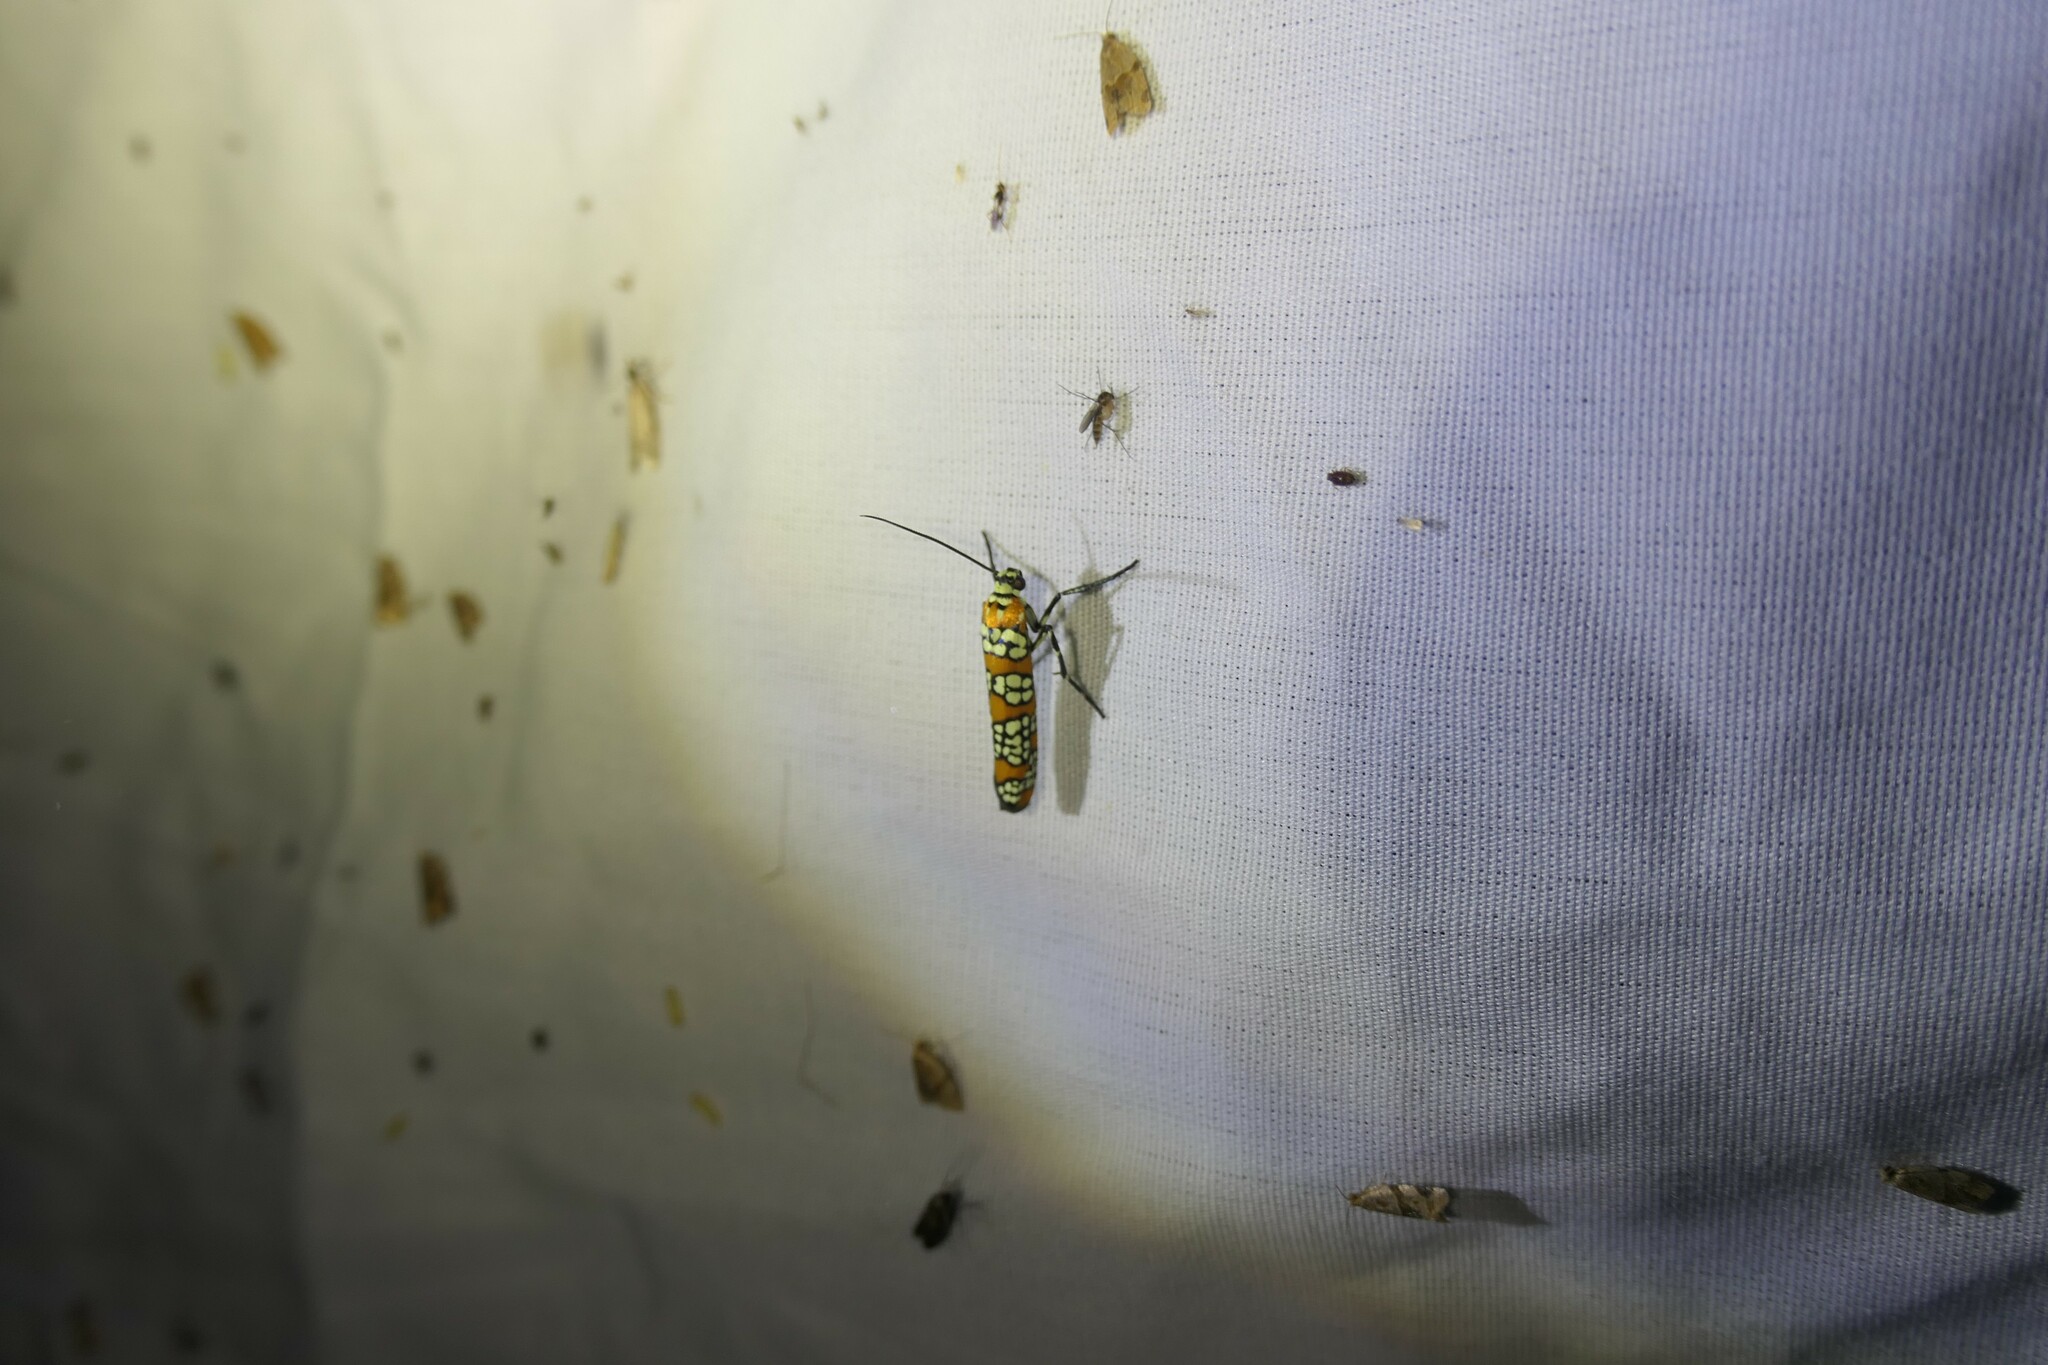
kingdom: Animalia
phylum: Arthropoda
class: Insecta
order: Lepidoptera
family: Attevidae
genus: Atteva
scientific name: Atteva punctella
